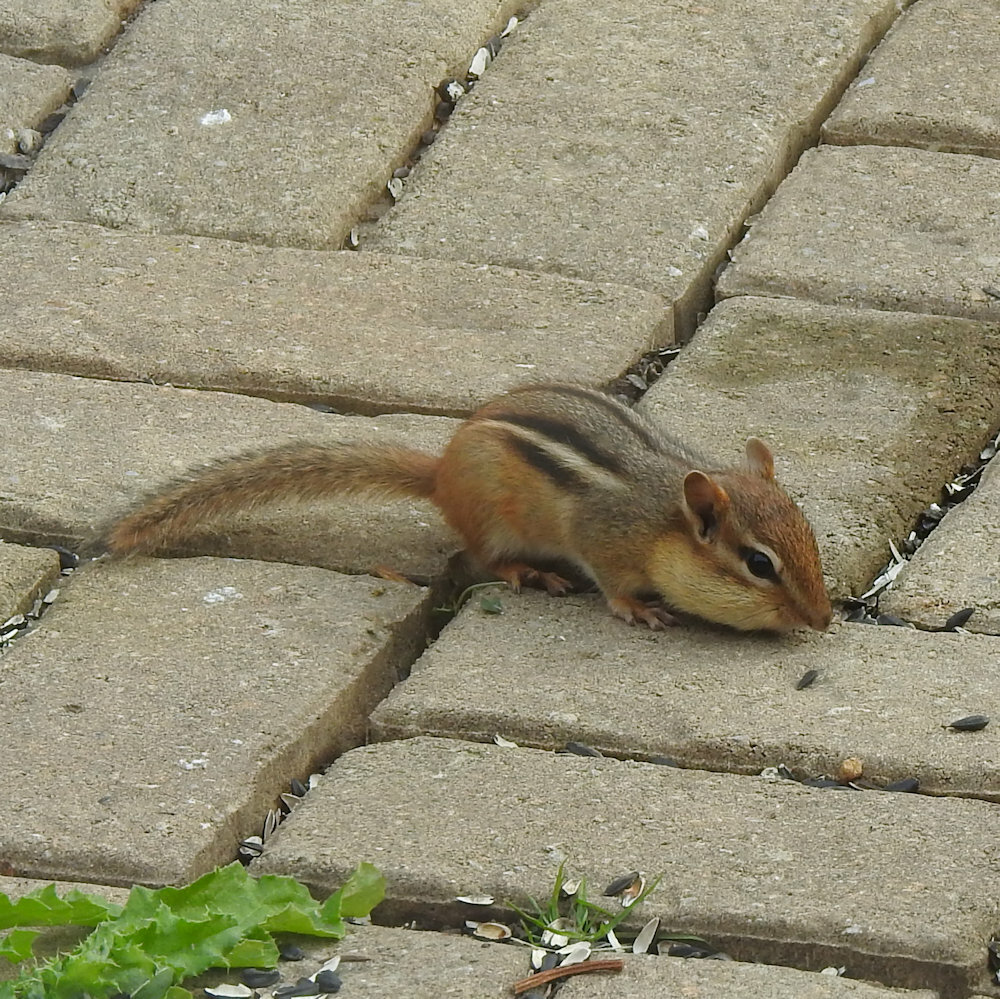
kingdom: Animalia
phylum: Chordata
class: Mammalia
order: Rodentia
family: Sciuridae
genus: Tamias
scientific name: Tamias striatus
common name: Eastern chipmunk
